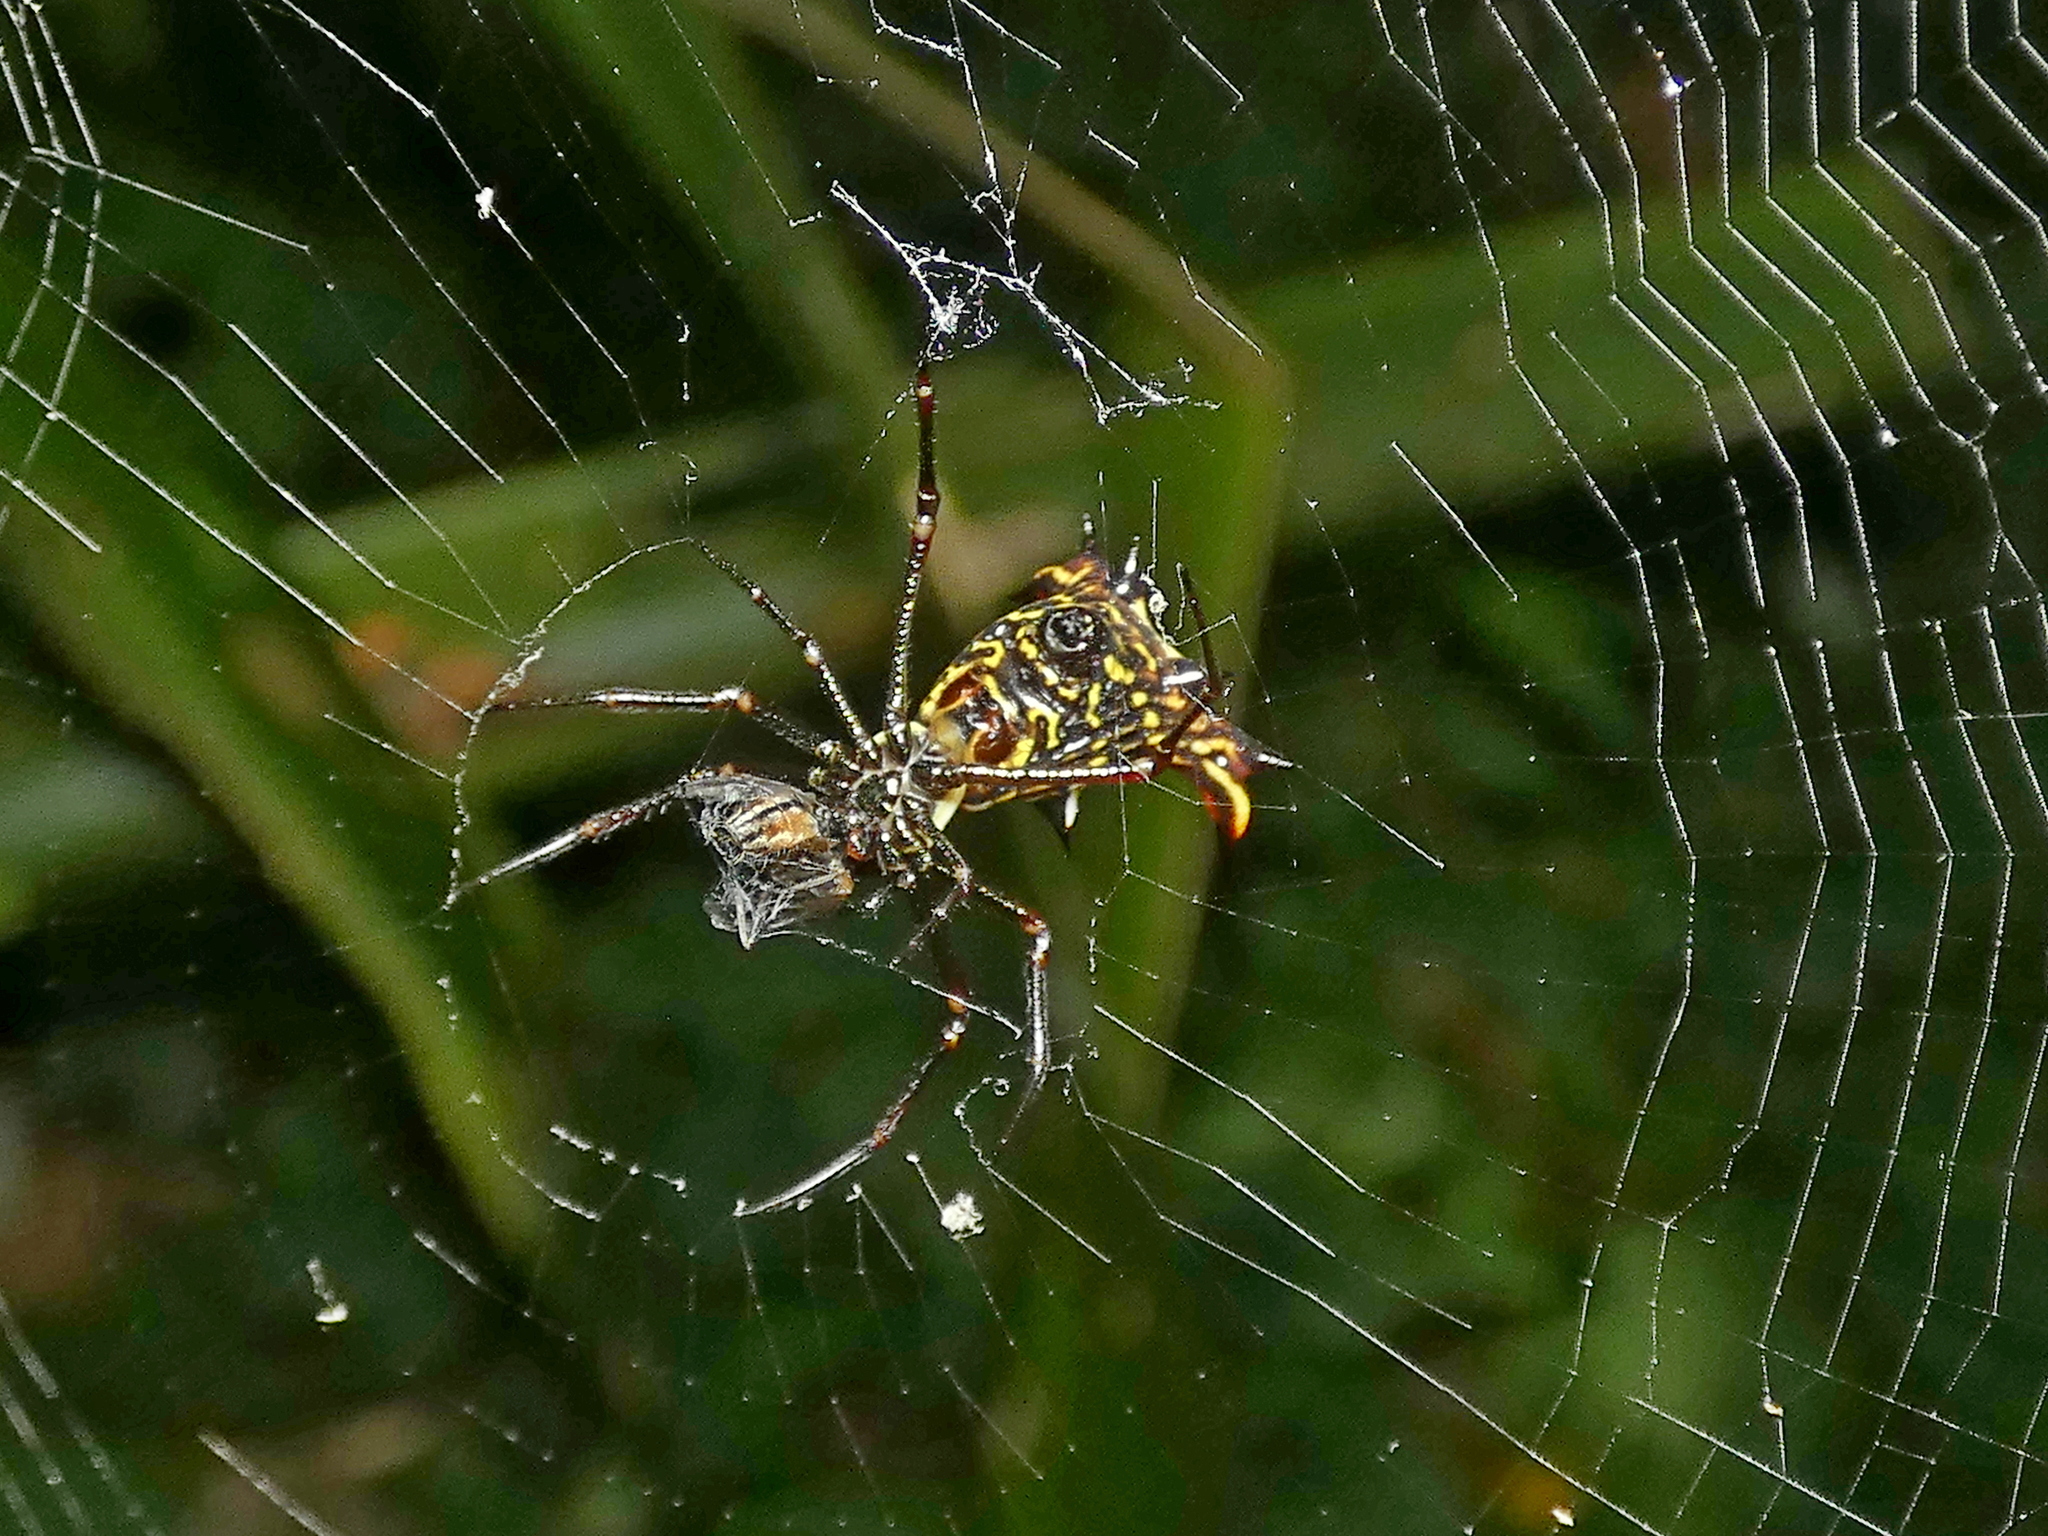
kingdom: Animalia
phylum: Arthropoda
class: Arachnida
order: Araneae
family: Araneidae
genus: Micrathena
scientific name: Micrathena fissispina
